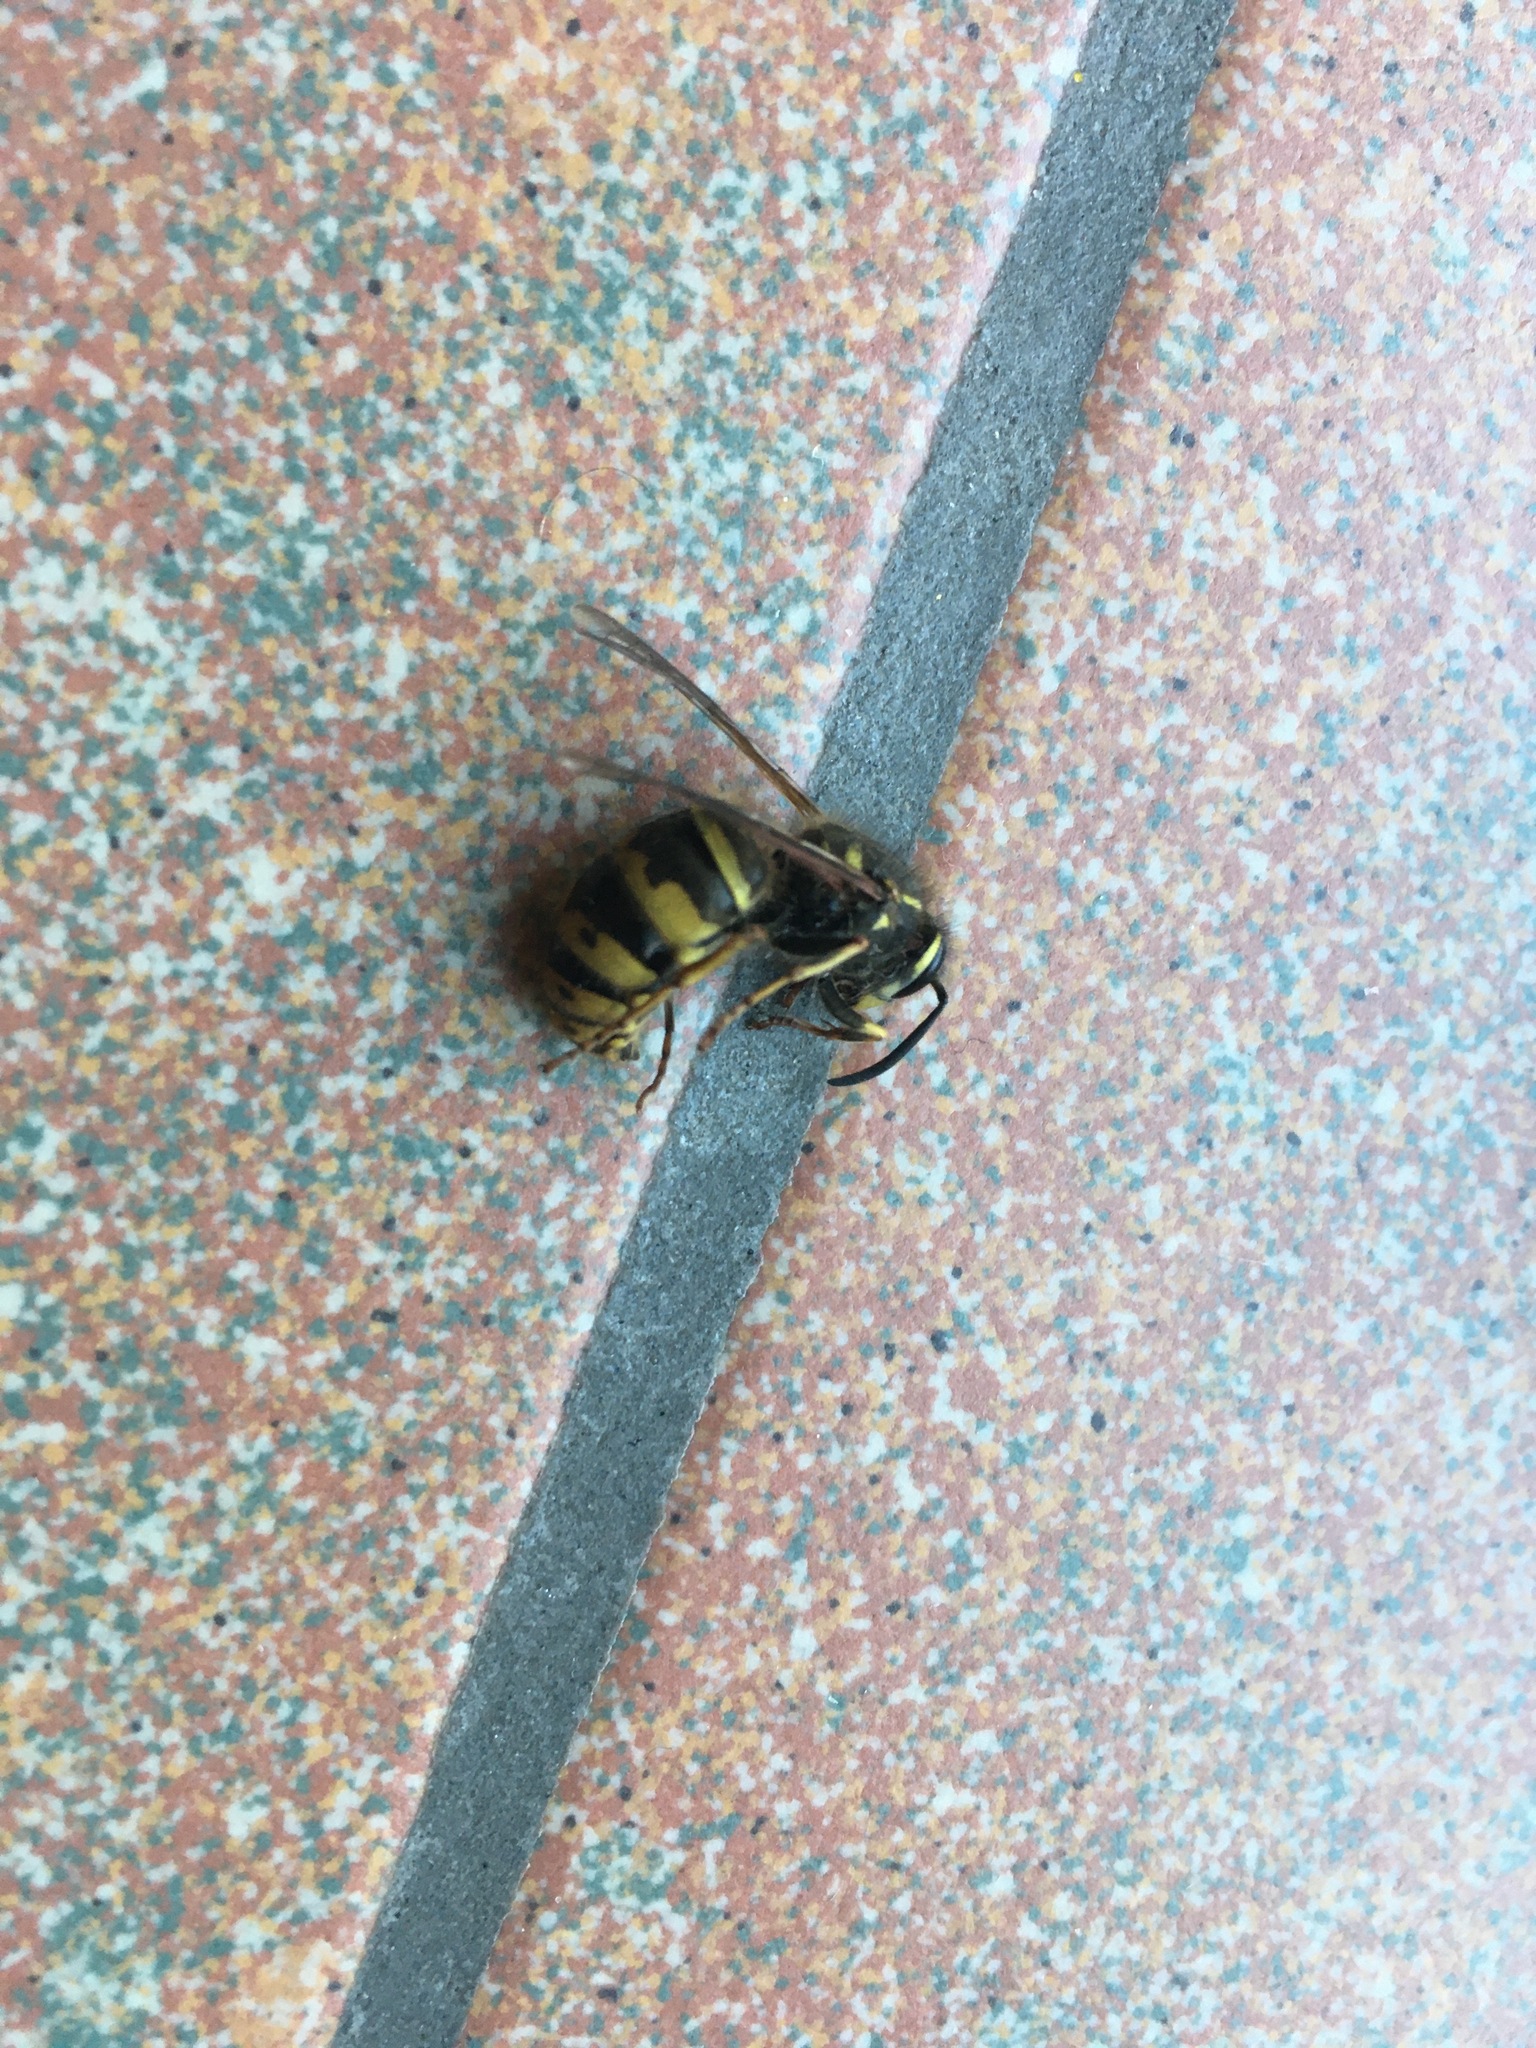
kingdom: Animalia
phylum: Arthropoda
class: Insecta
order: Hymenoptera
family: Vespidae
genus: Vespula
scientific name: Vespula vulgaris
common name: Common wasp
